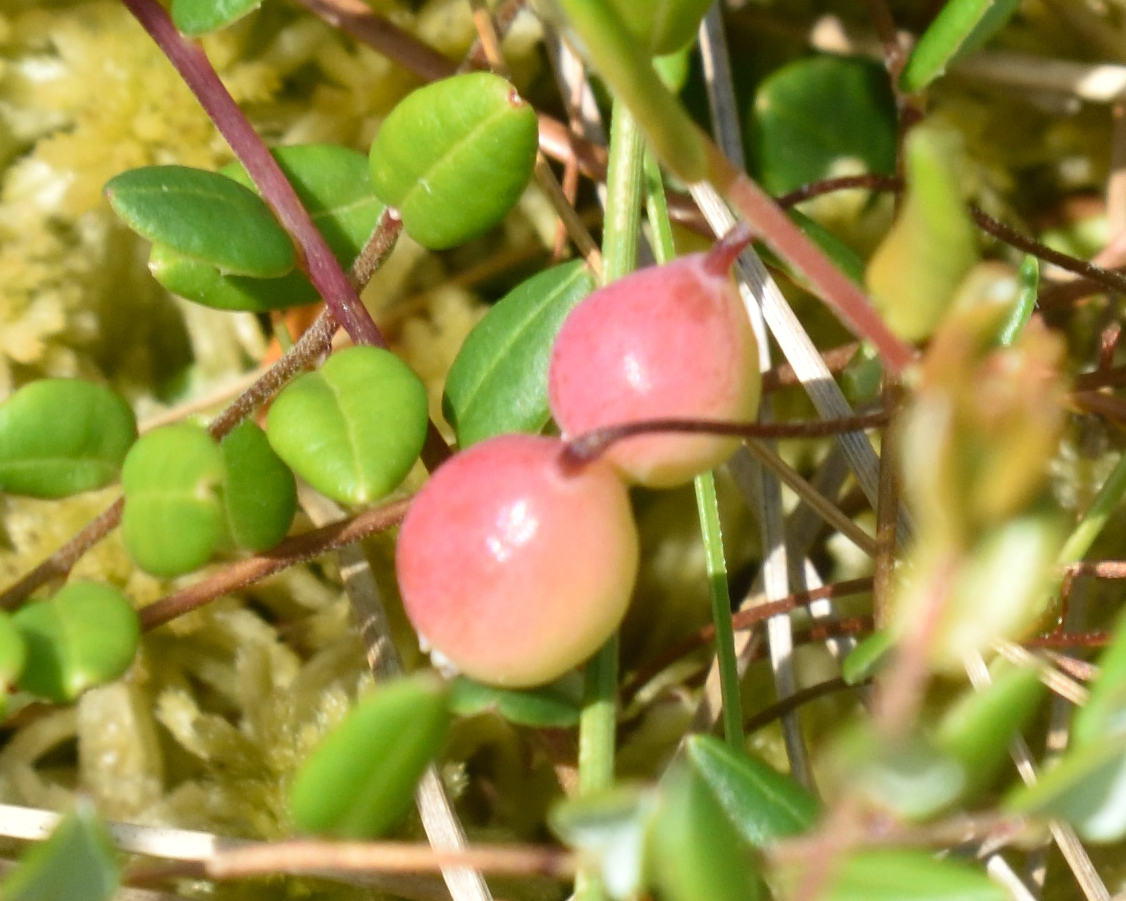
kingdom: Plantae
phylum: Tracheophyta
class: Magnoliopsida
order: Ericales
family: Ericaceae
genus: Vaccinium
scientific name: Vaccinium oxycoccos
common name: Cranberry
